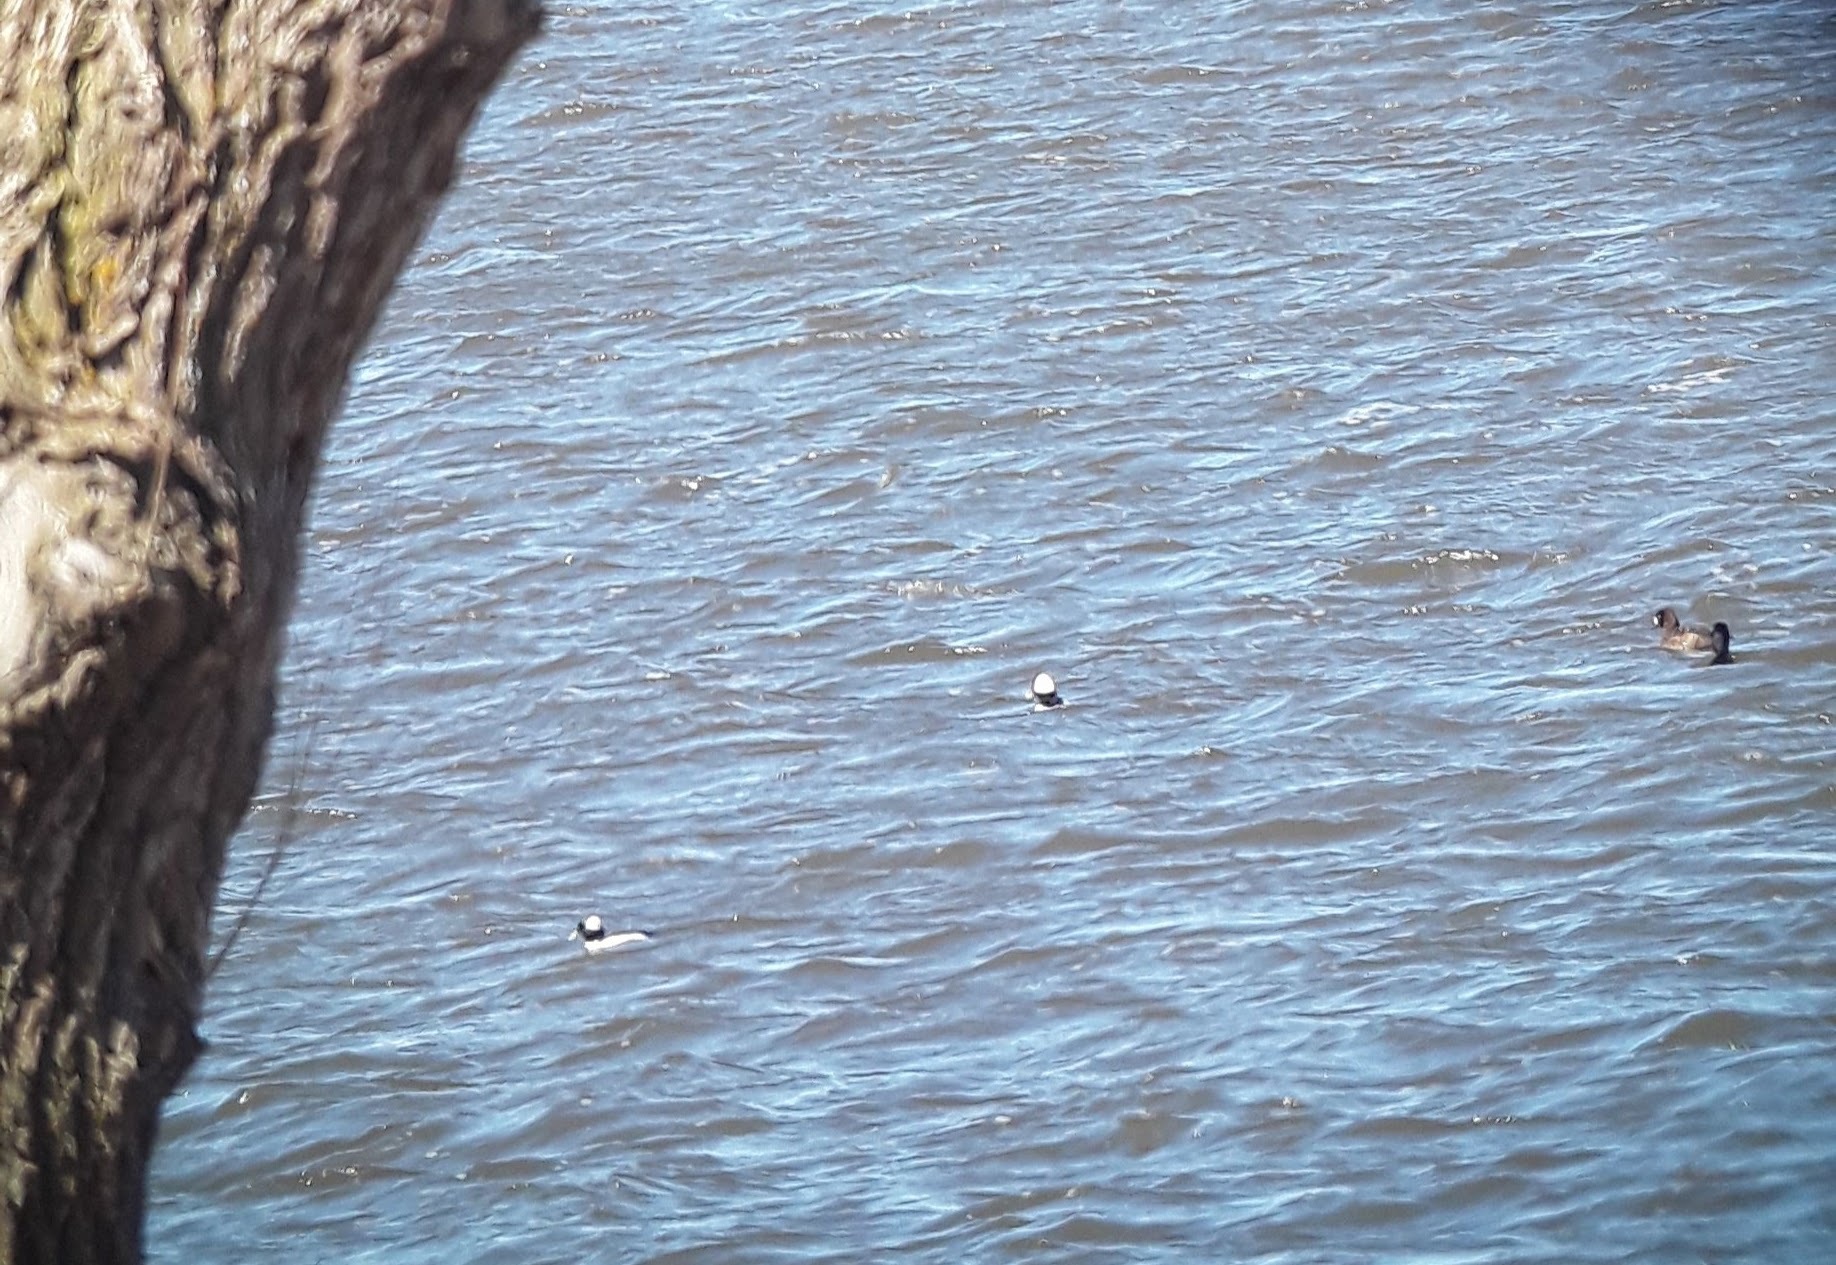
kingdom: Animalia
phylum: Chordata
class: Aves
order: Anseriformes
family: Anatidae
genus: Bucephala
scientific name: Bucephala albeola
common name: Bufflehead
